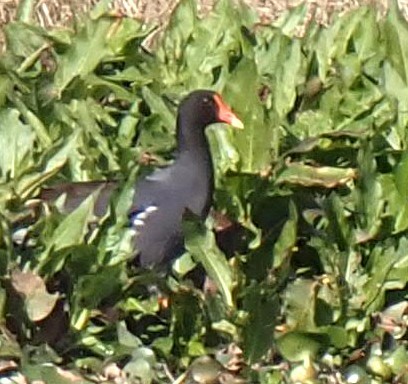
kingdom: Animalia
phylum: Chordata
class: Aves
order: Gruiformes
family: Rallidae
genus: Gallinula
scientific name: Gallinula chloropus
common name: Common moorhen
